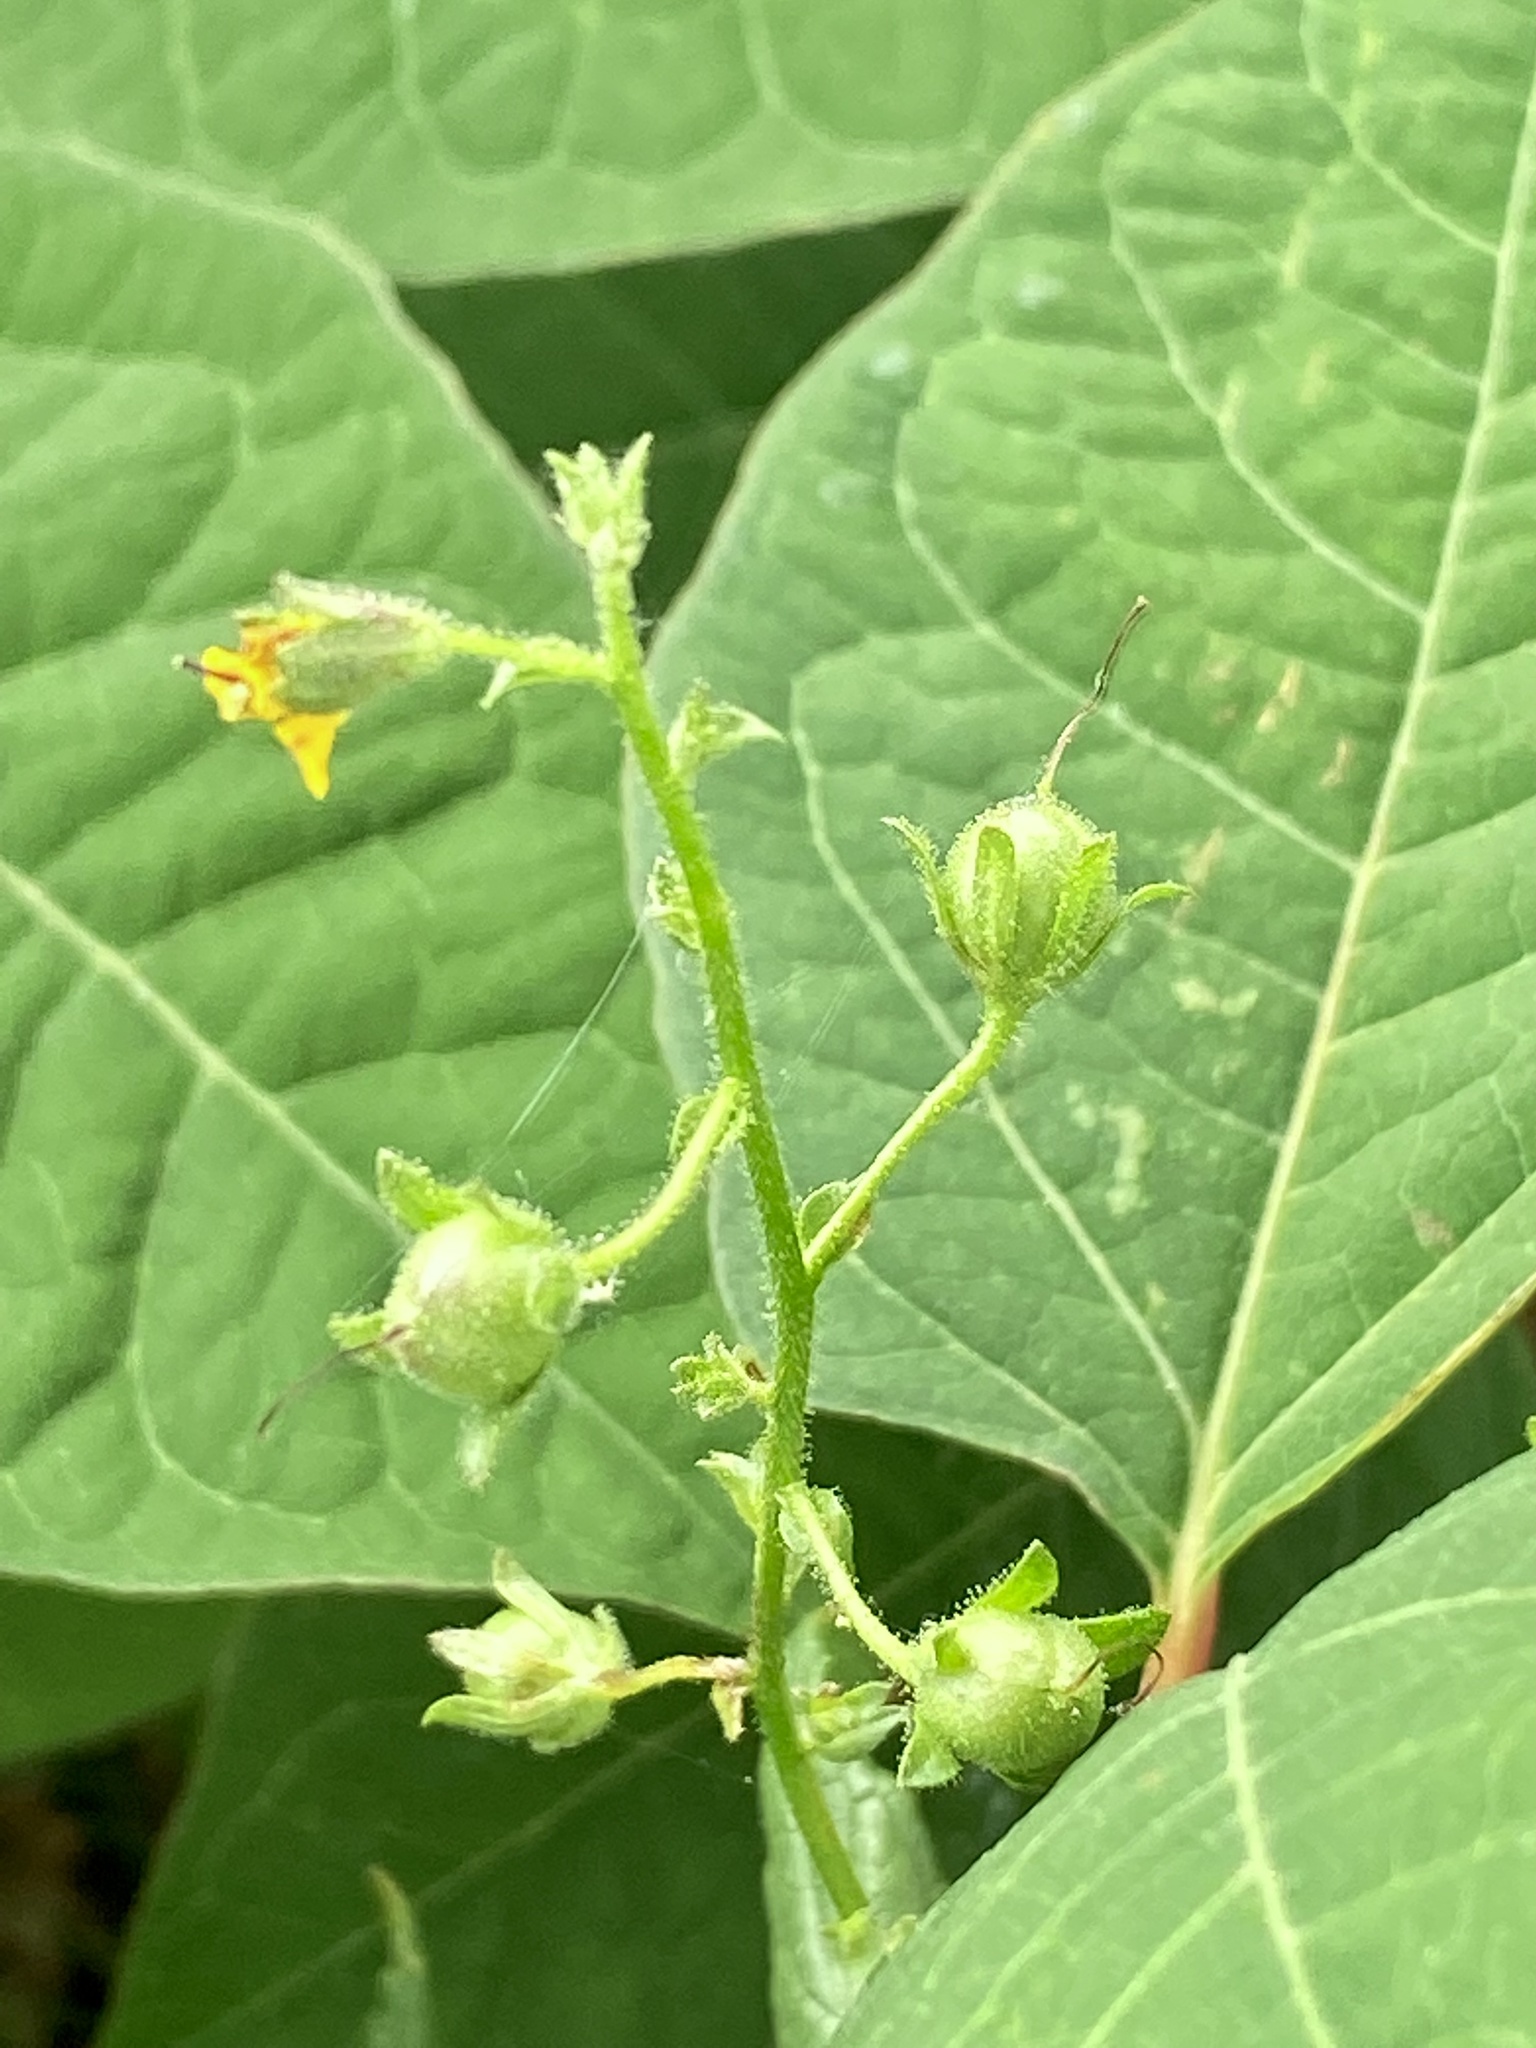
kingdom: Plantae
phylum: Tracheophyta
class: Magnoliopsida
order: Lamiales
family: Scrophulariaceae
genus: Verbascum
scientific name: Verbascum blattaria
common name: Moth mullein
